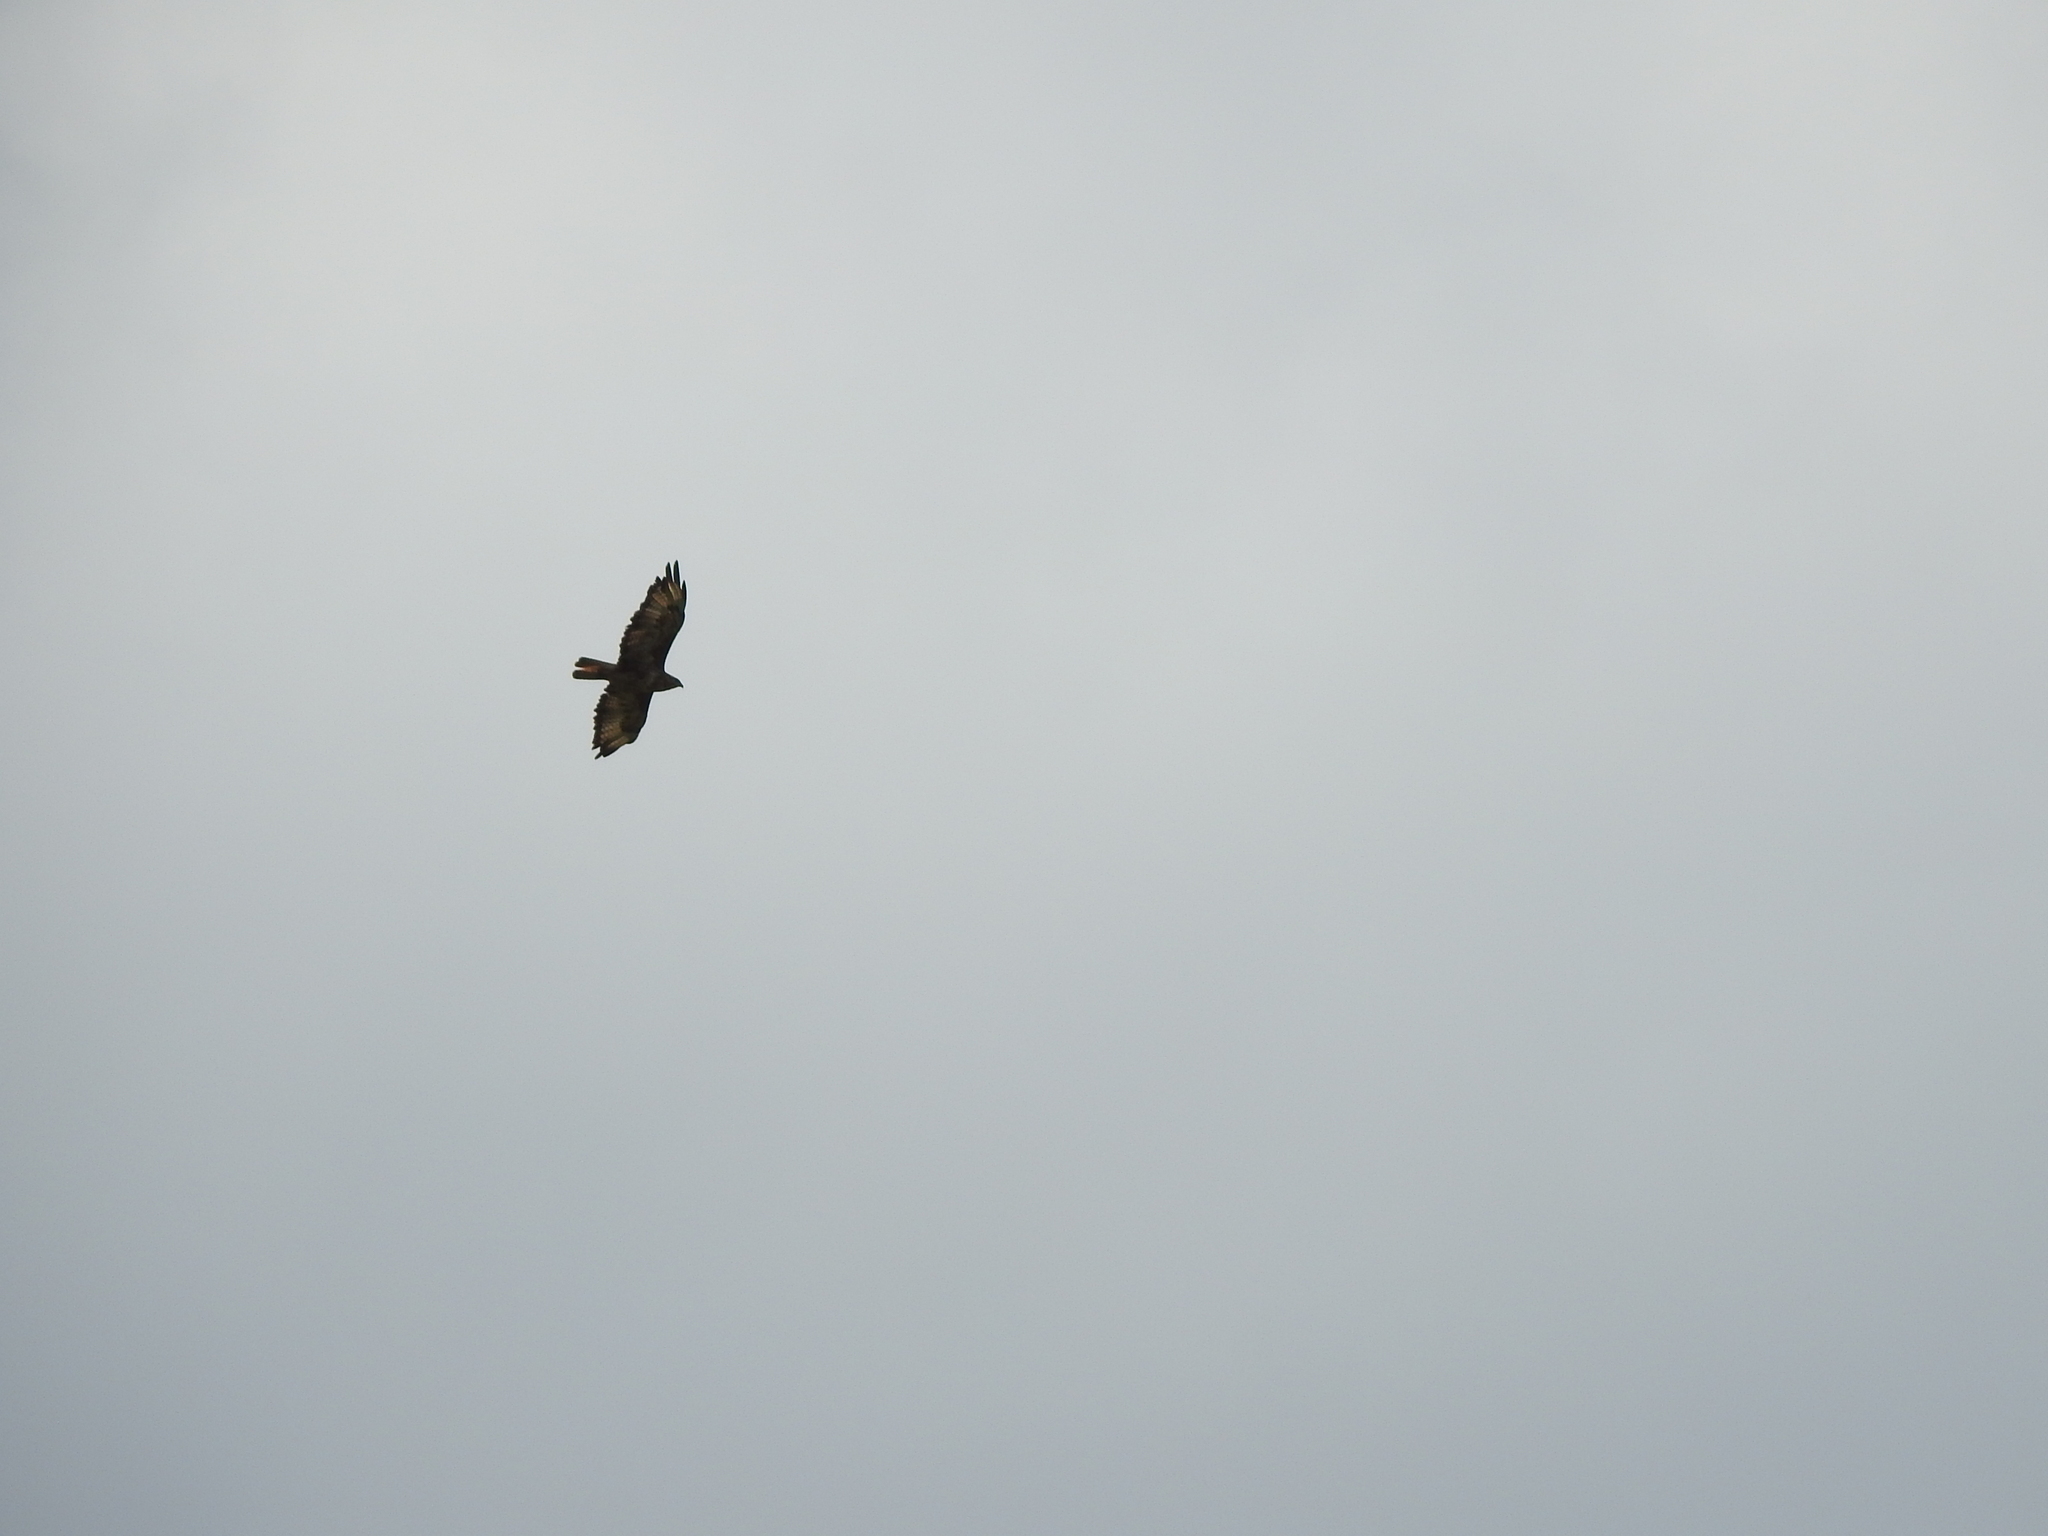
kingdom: Animalia
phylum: Chordata
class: Aves
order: Accipitriformes
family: Accipitridae
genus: Buteo
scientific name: Buteo buteo
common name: Common buzzard
